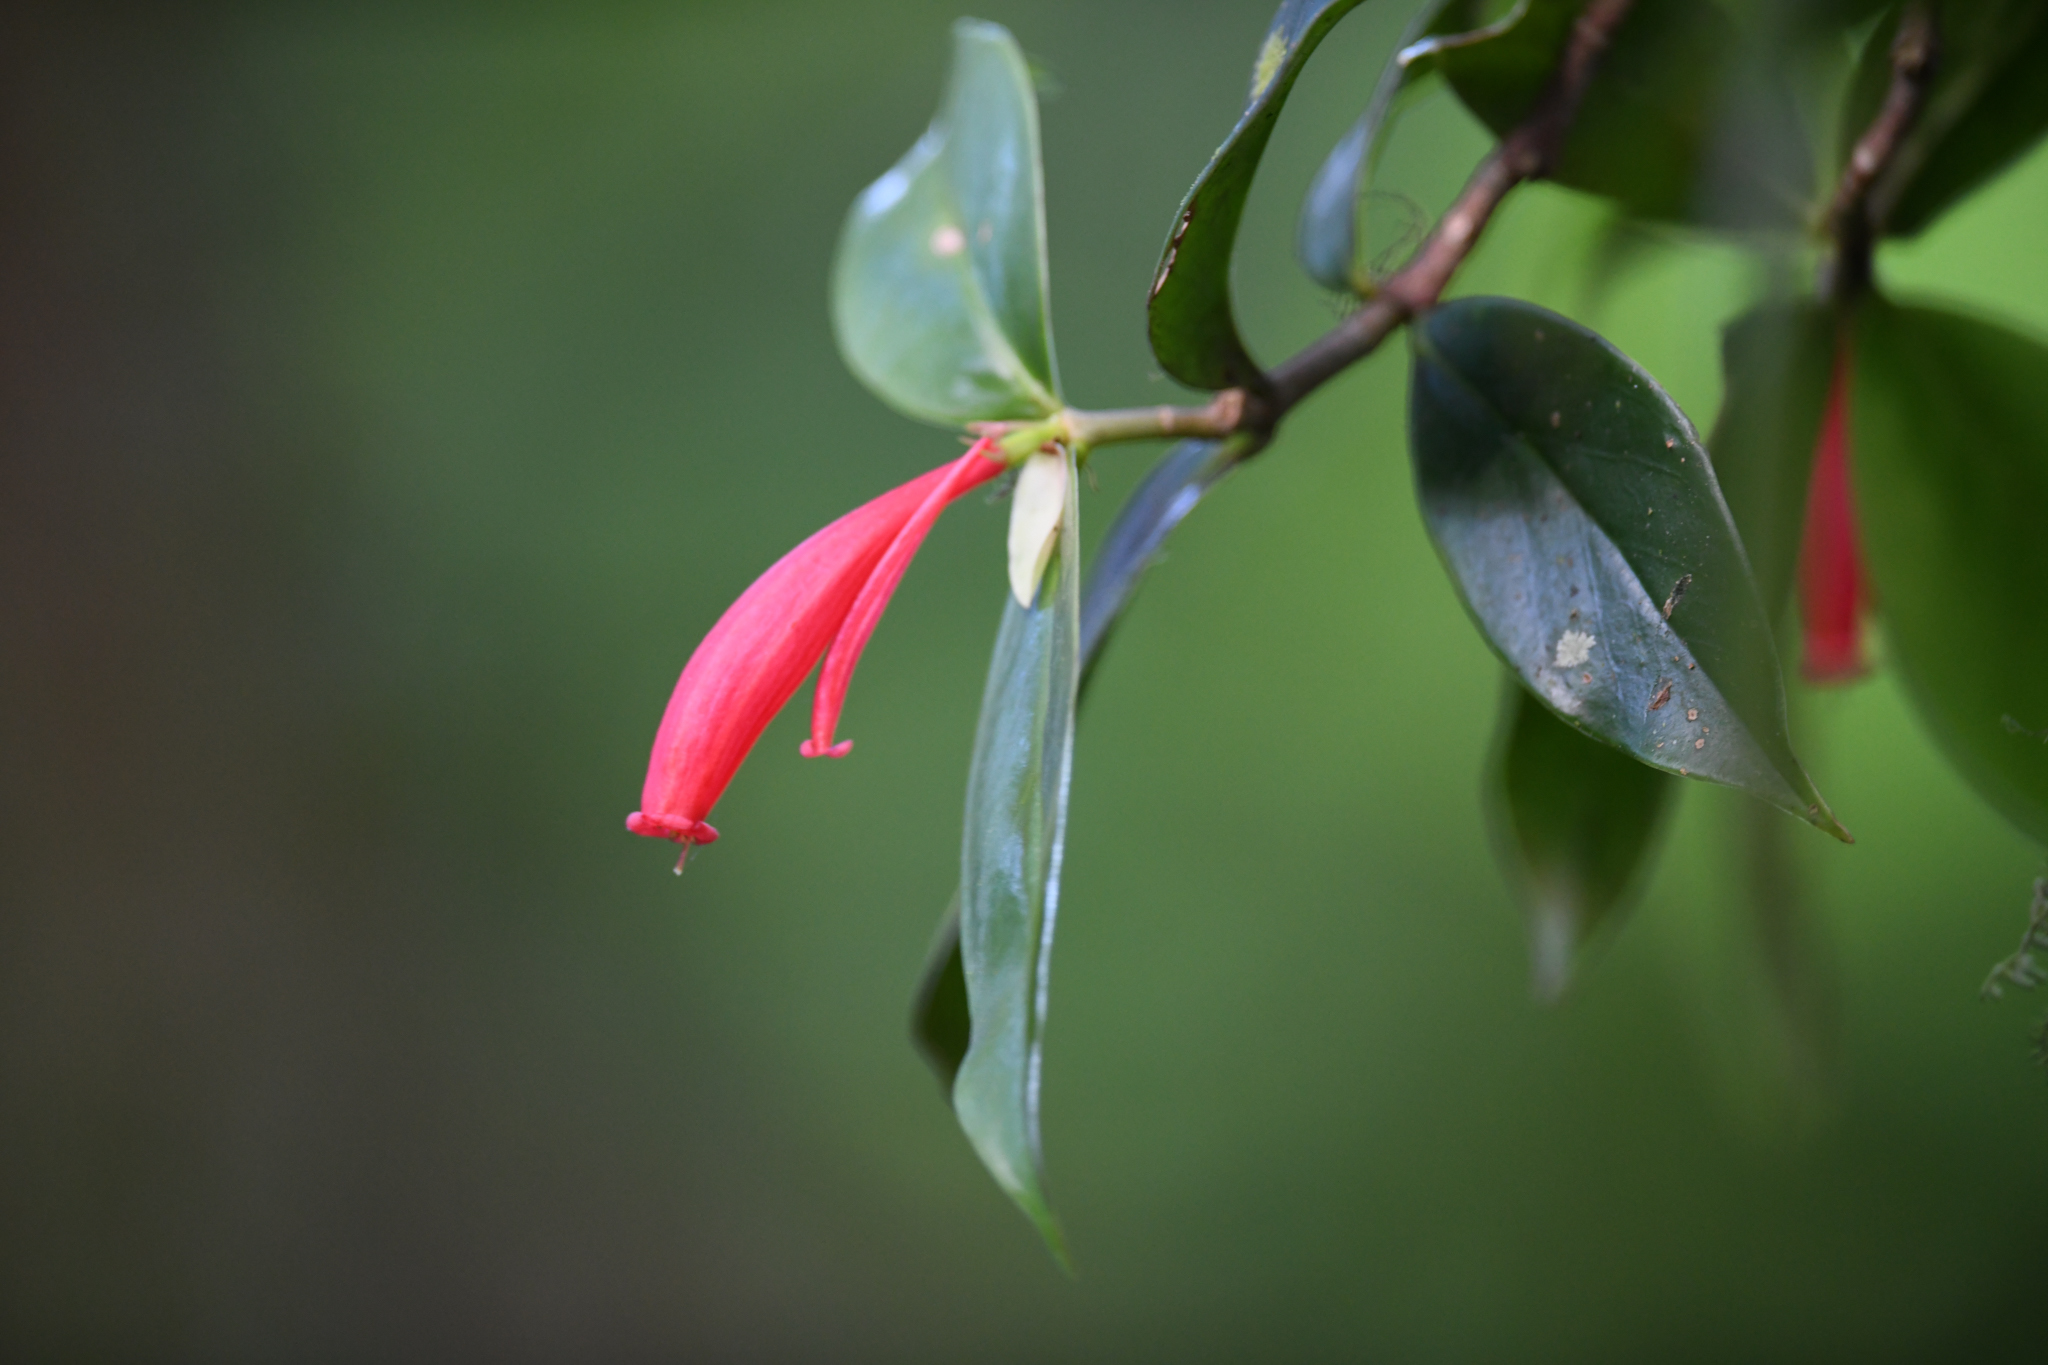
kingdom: Plantae
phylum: Tracheophyta
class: Magnoliopsida
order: Gentianales
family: Rubiaceae
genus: Hillia
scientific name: Hillia triflora
